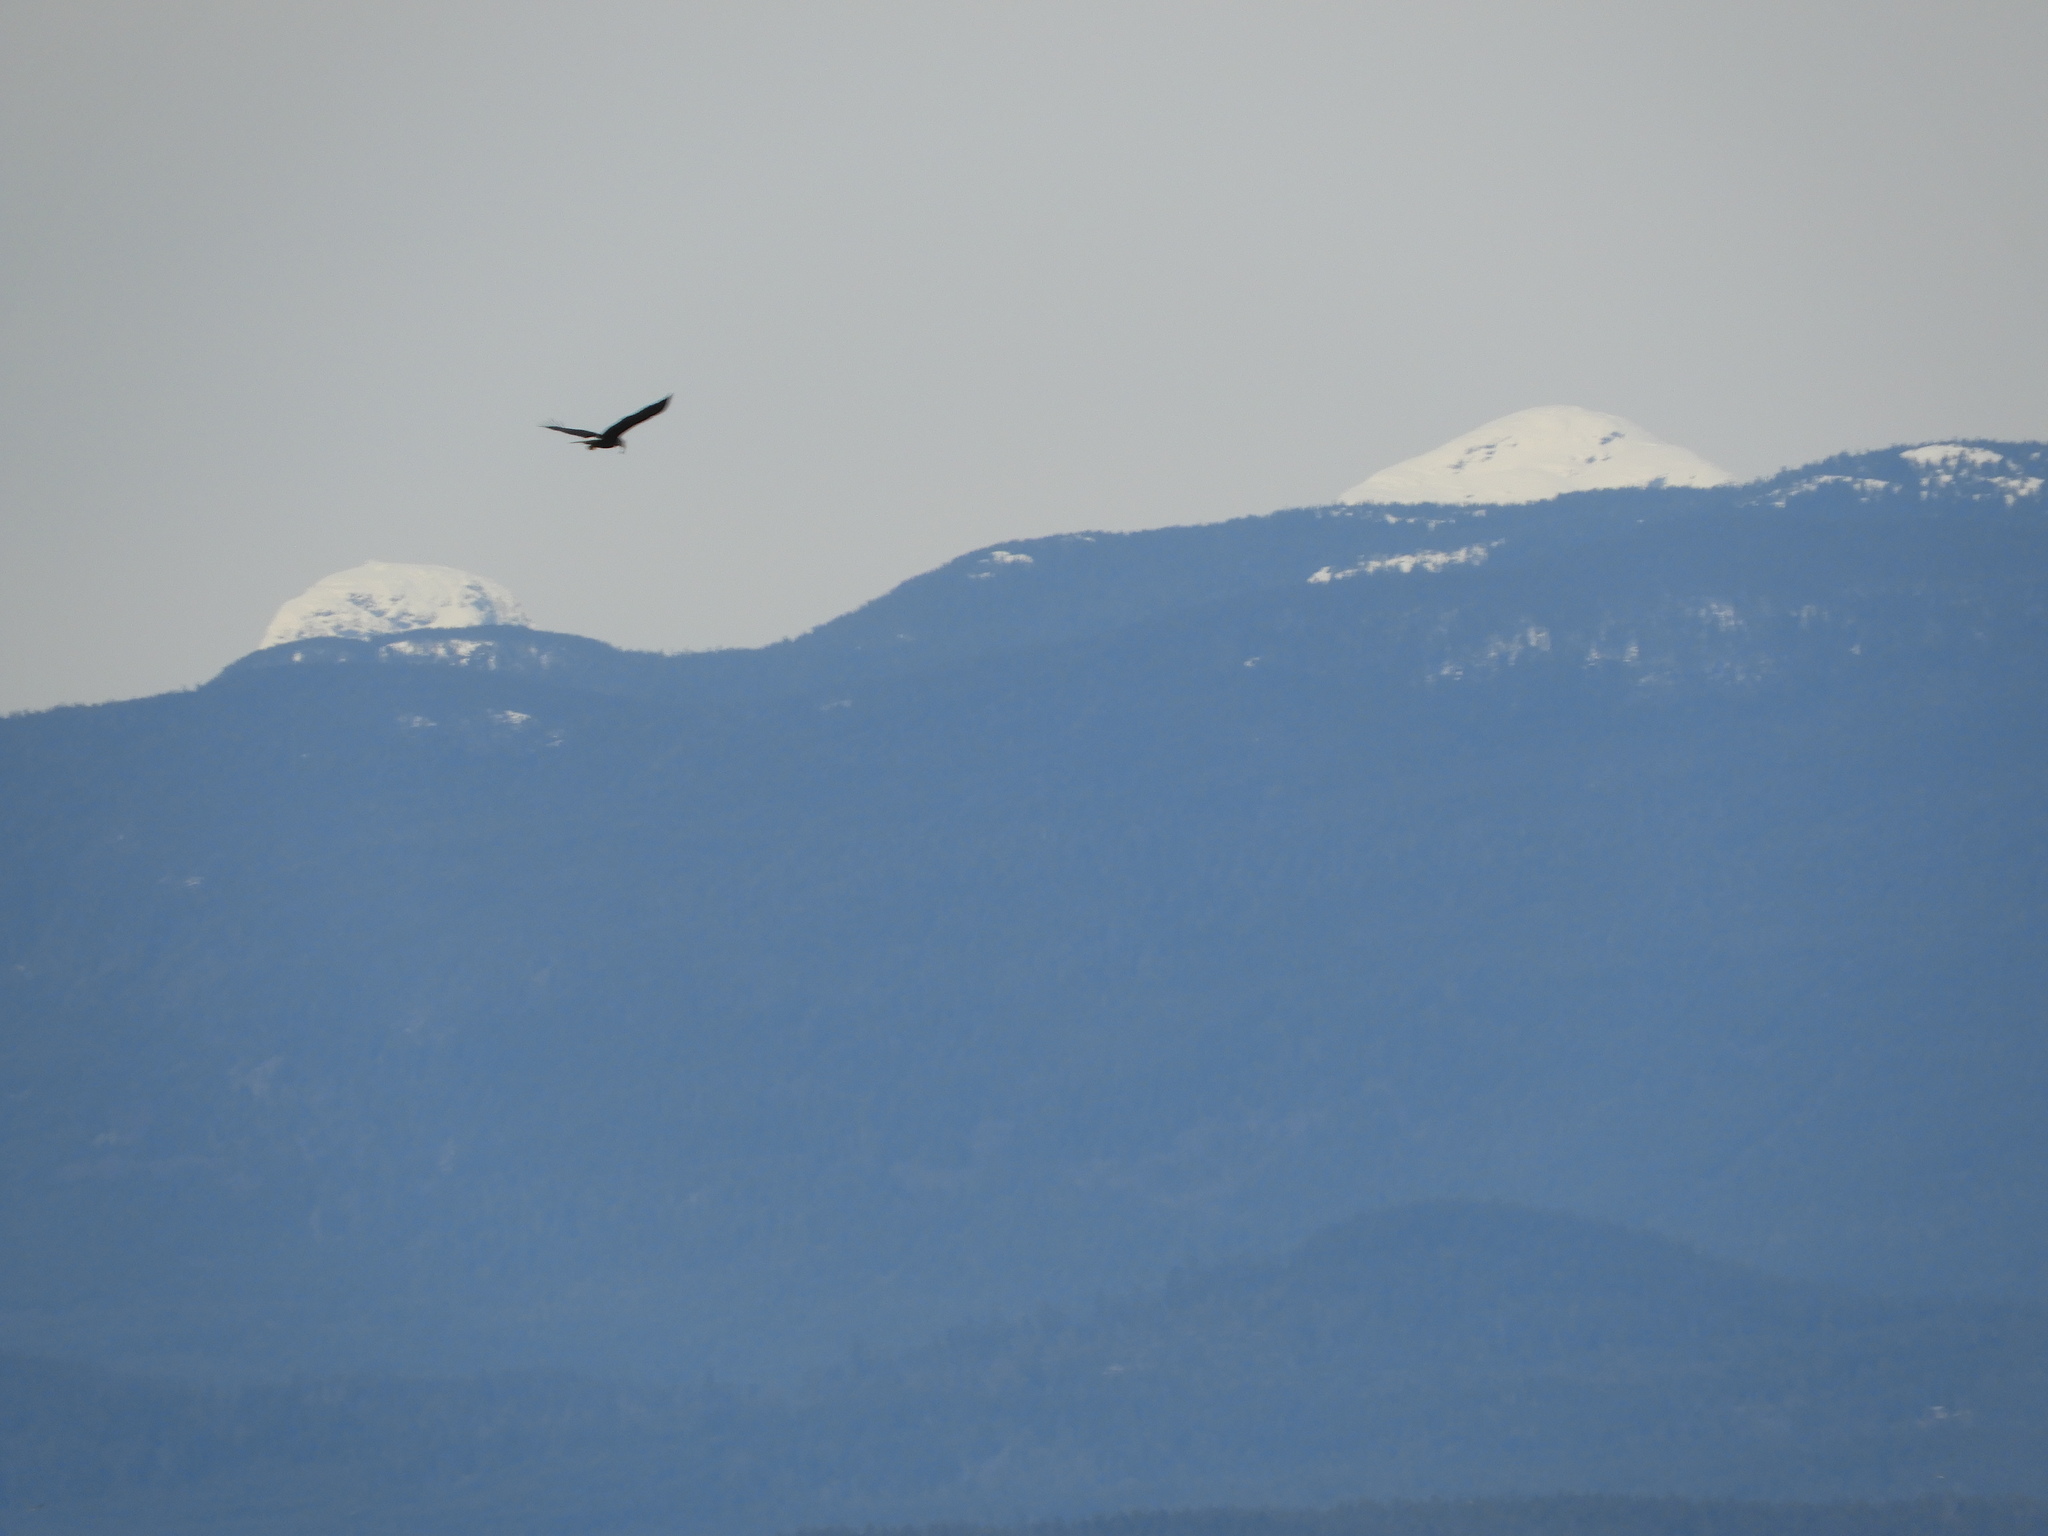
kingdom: Animalia
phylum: Chordata
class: Aves
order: Accipitriformes
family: Accipitridae
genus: Haliaeetus
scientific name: Haliaeetus leucocephalus
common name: Bald eagle
